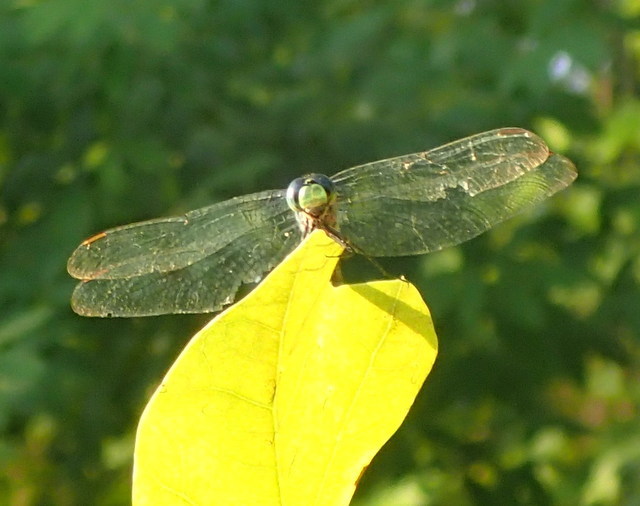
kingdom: Animalia
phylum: Arthropoda
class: Insecta
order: Odonata
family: Libellulidae
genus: Erythemis
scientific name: Erythemis simplicicollis
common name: Eastern pondhawk
